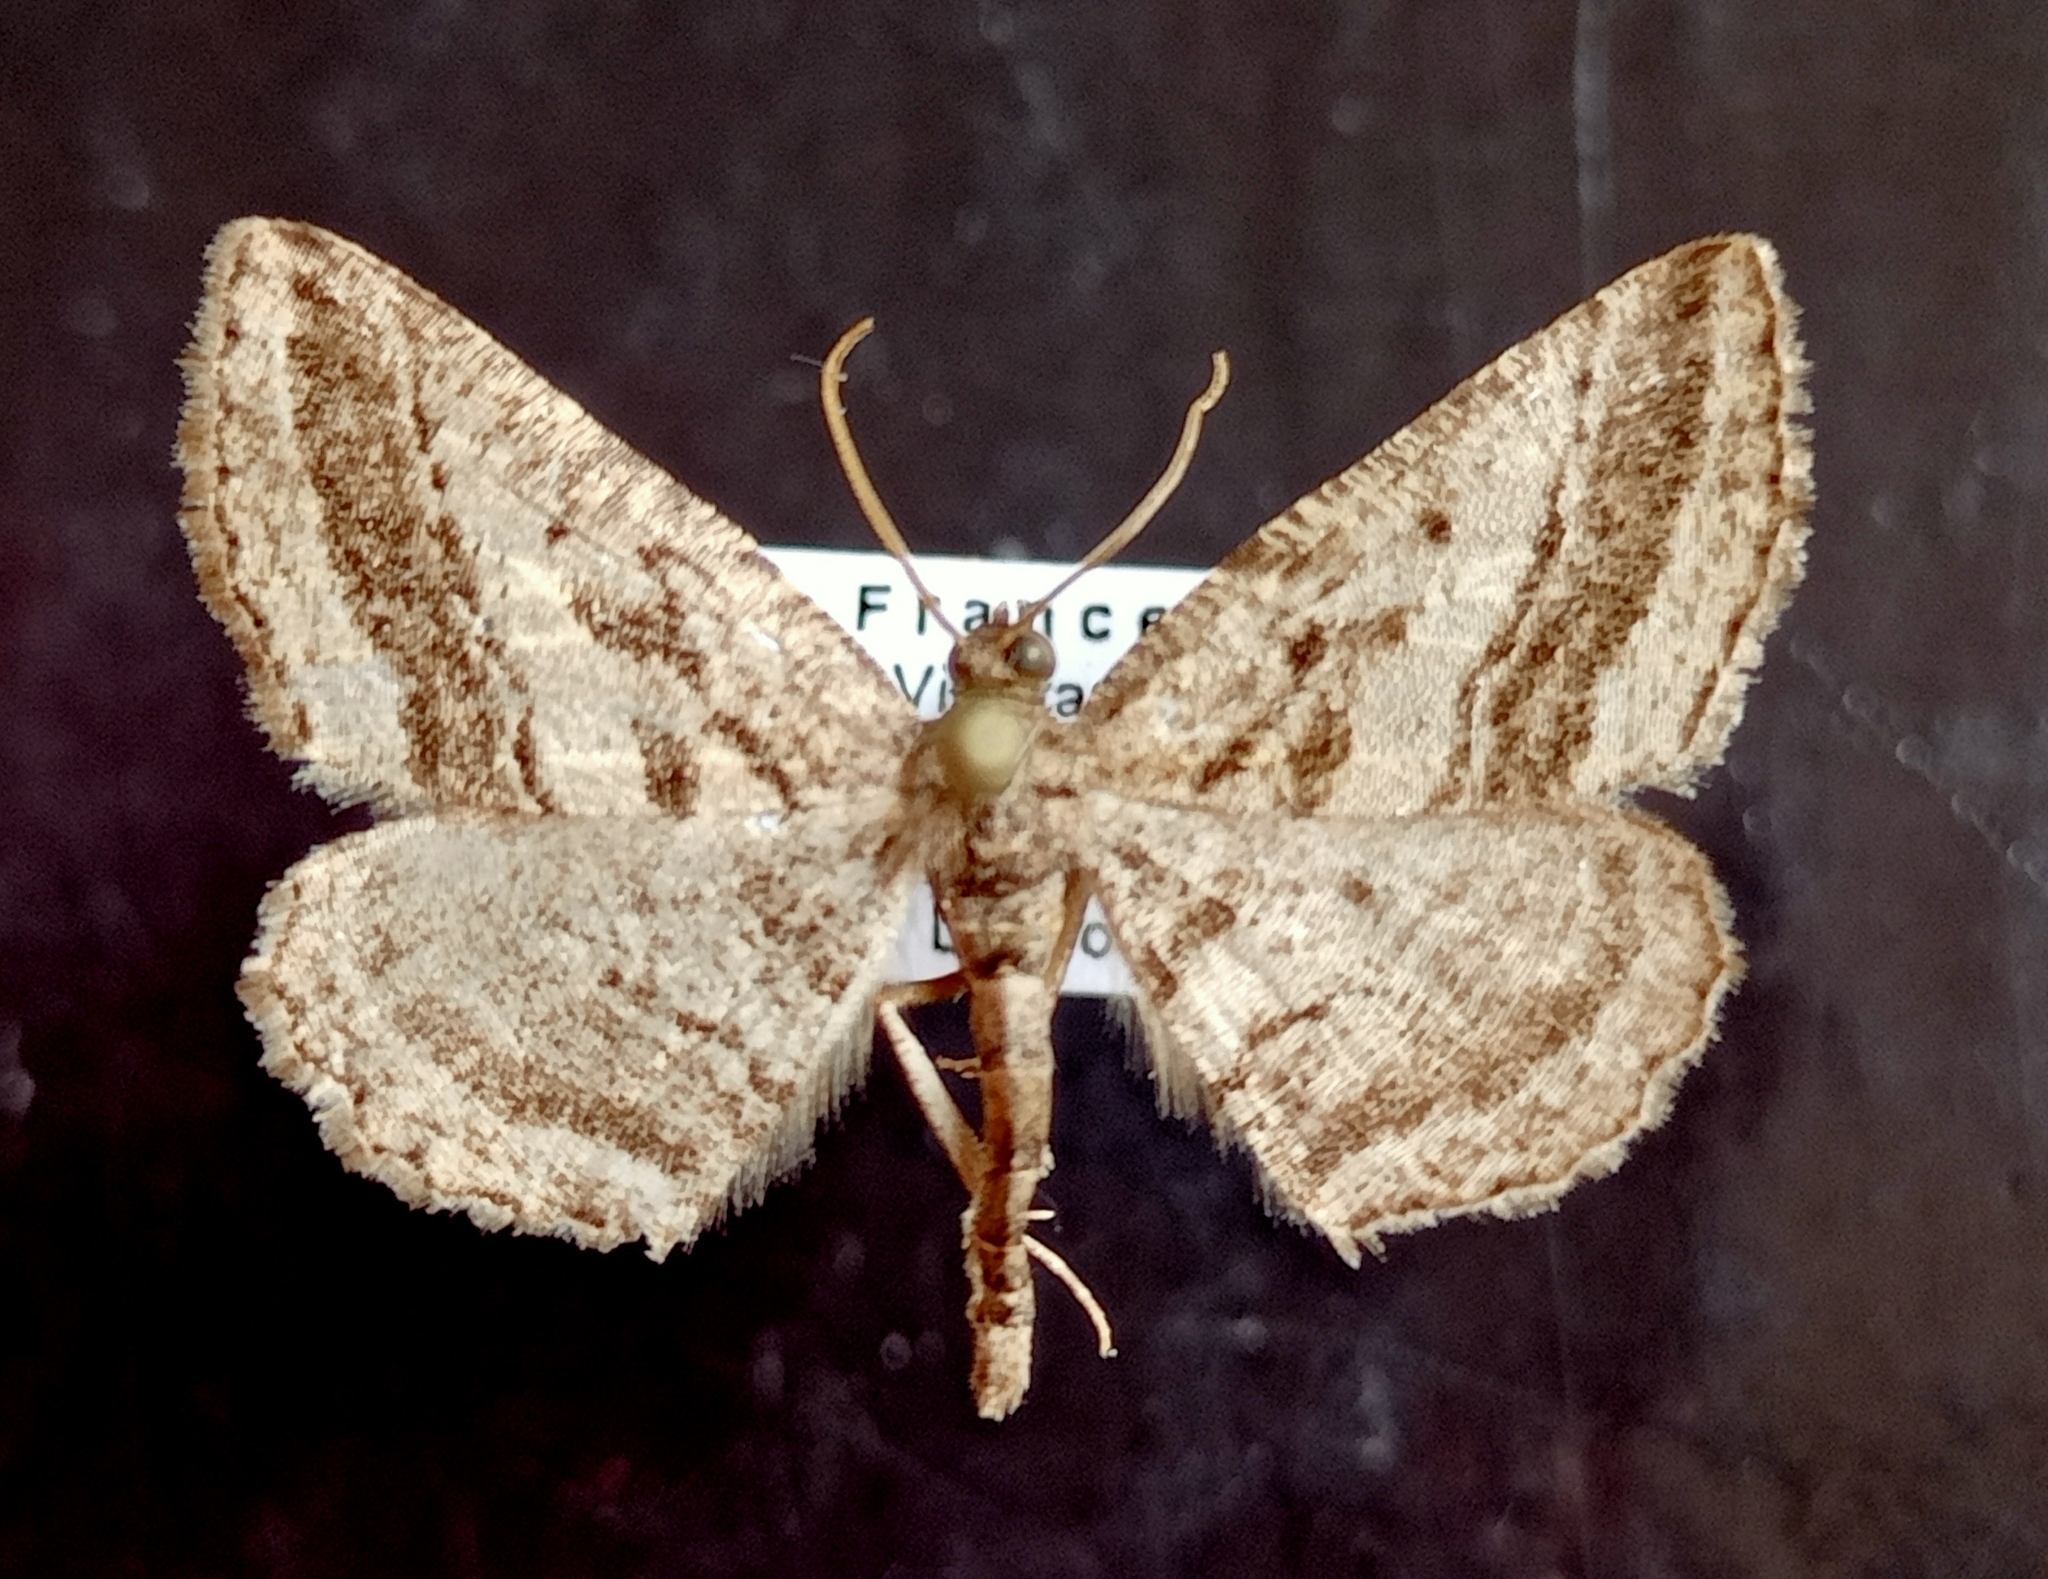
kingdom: Animalia
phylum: Arthropoda
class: Insecta
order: Lepidoptera
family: Geometridae
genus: Rhoptria
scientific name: Rhoptria asperaria
